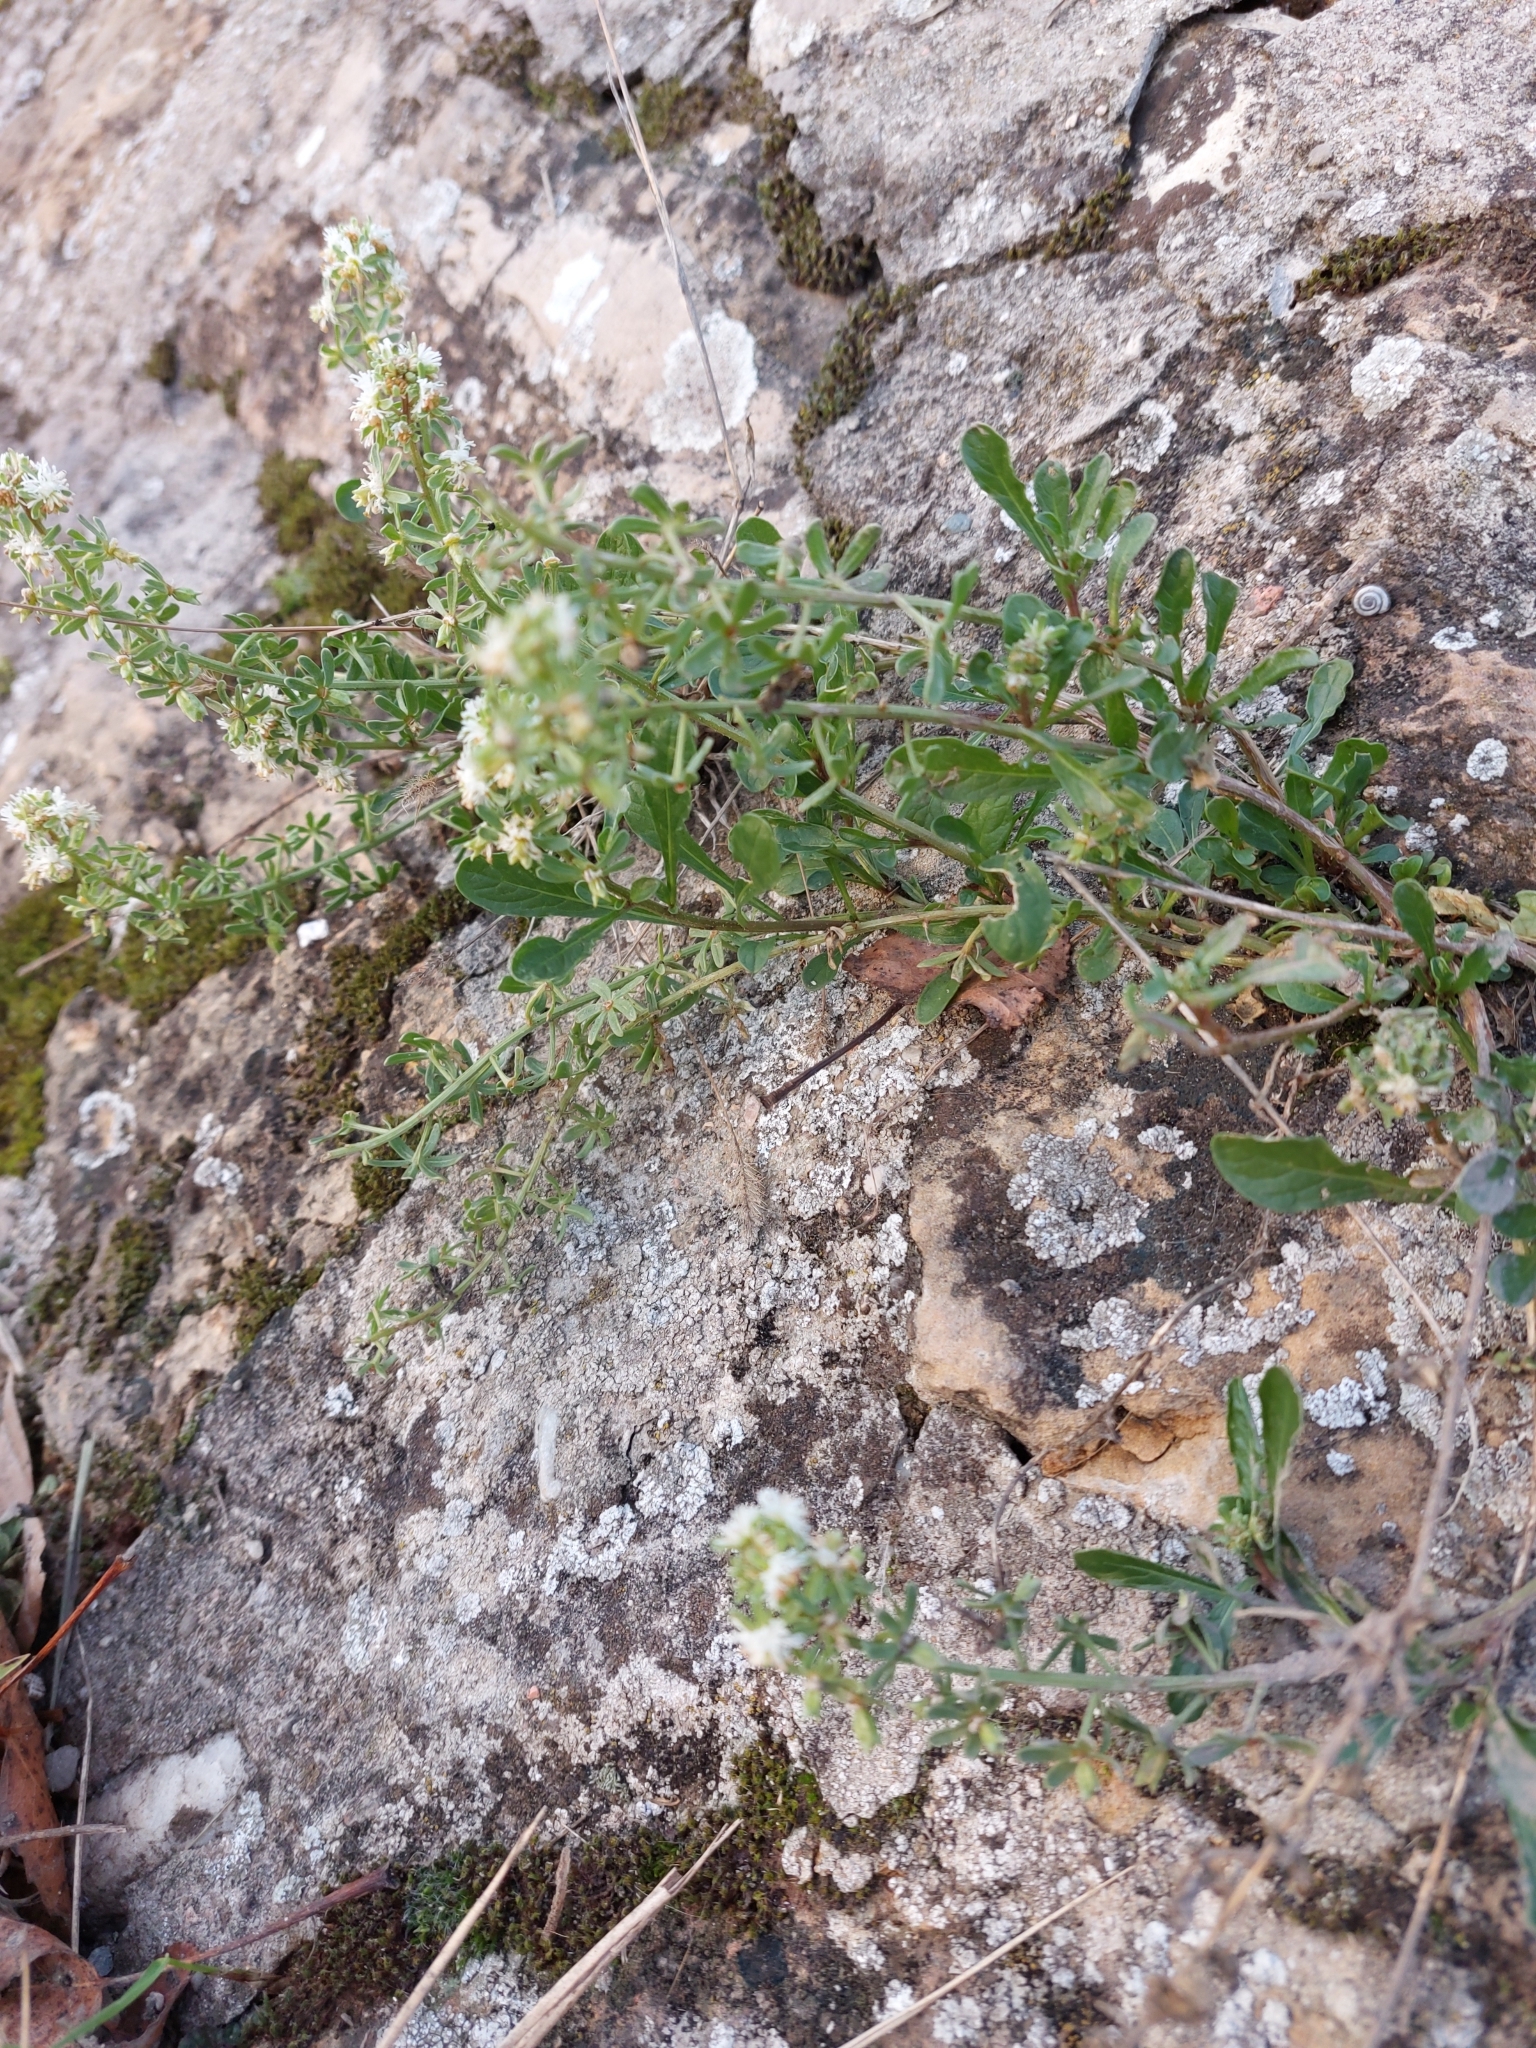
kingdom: Plantae
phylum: Tracheophyta
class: Magnoliopsida
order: Brassicales
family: Resedaceae
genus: Reseda
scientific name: Reseda phyteuma
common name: Corn mignonette
